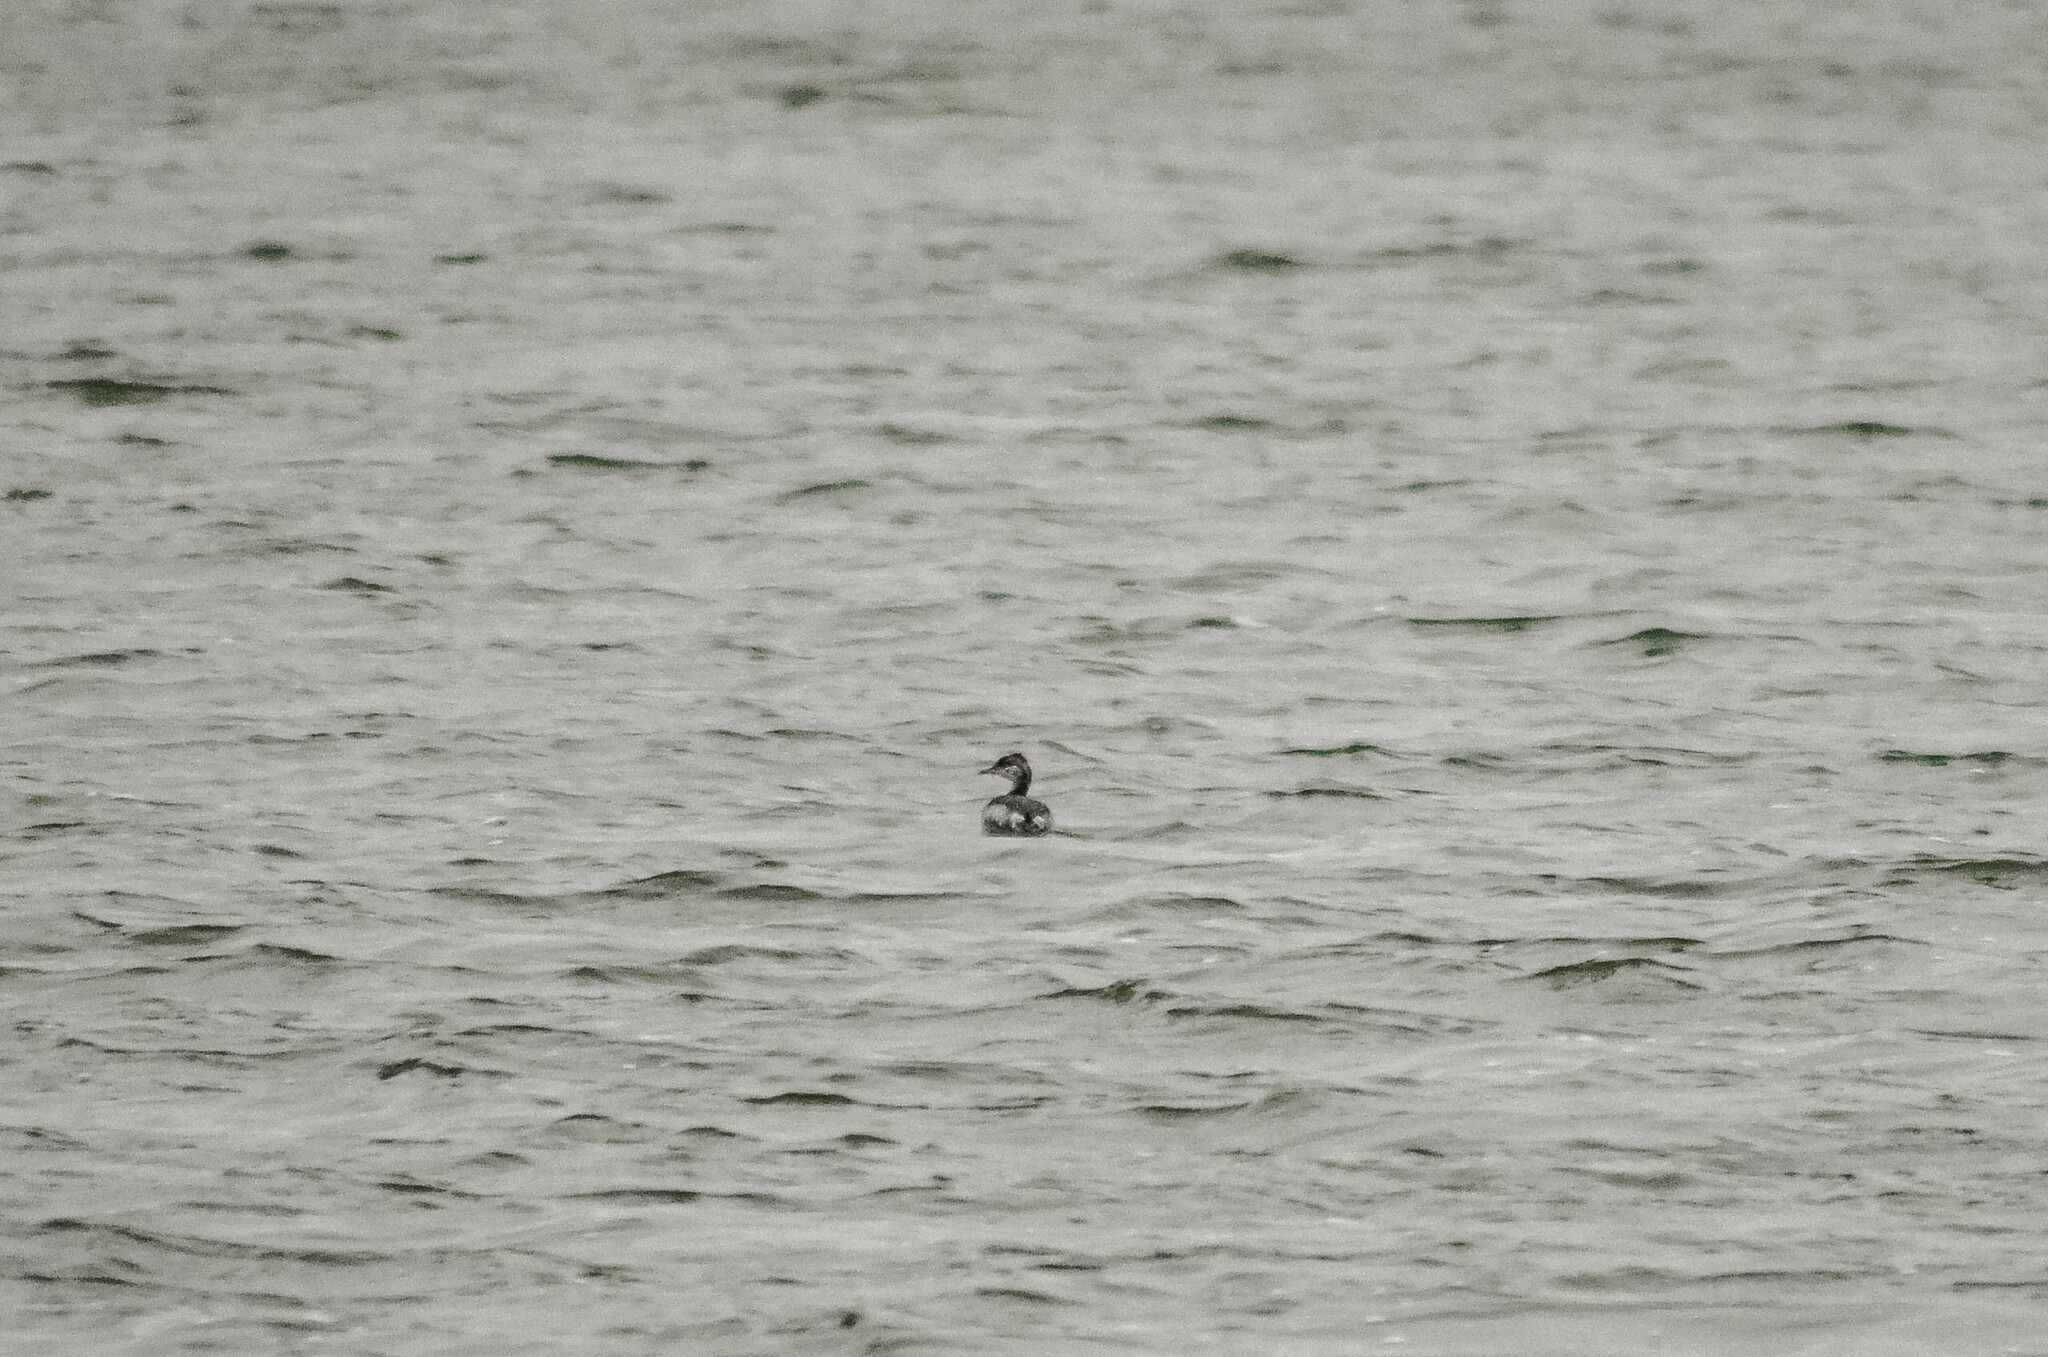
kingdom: Animalia
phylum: Chordata
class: Aves
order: Podicipediformes
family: Podicipedidae
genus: Podiceps
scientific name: Podiceps auritus
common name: Horned grebe
